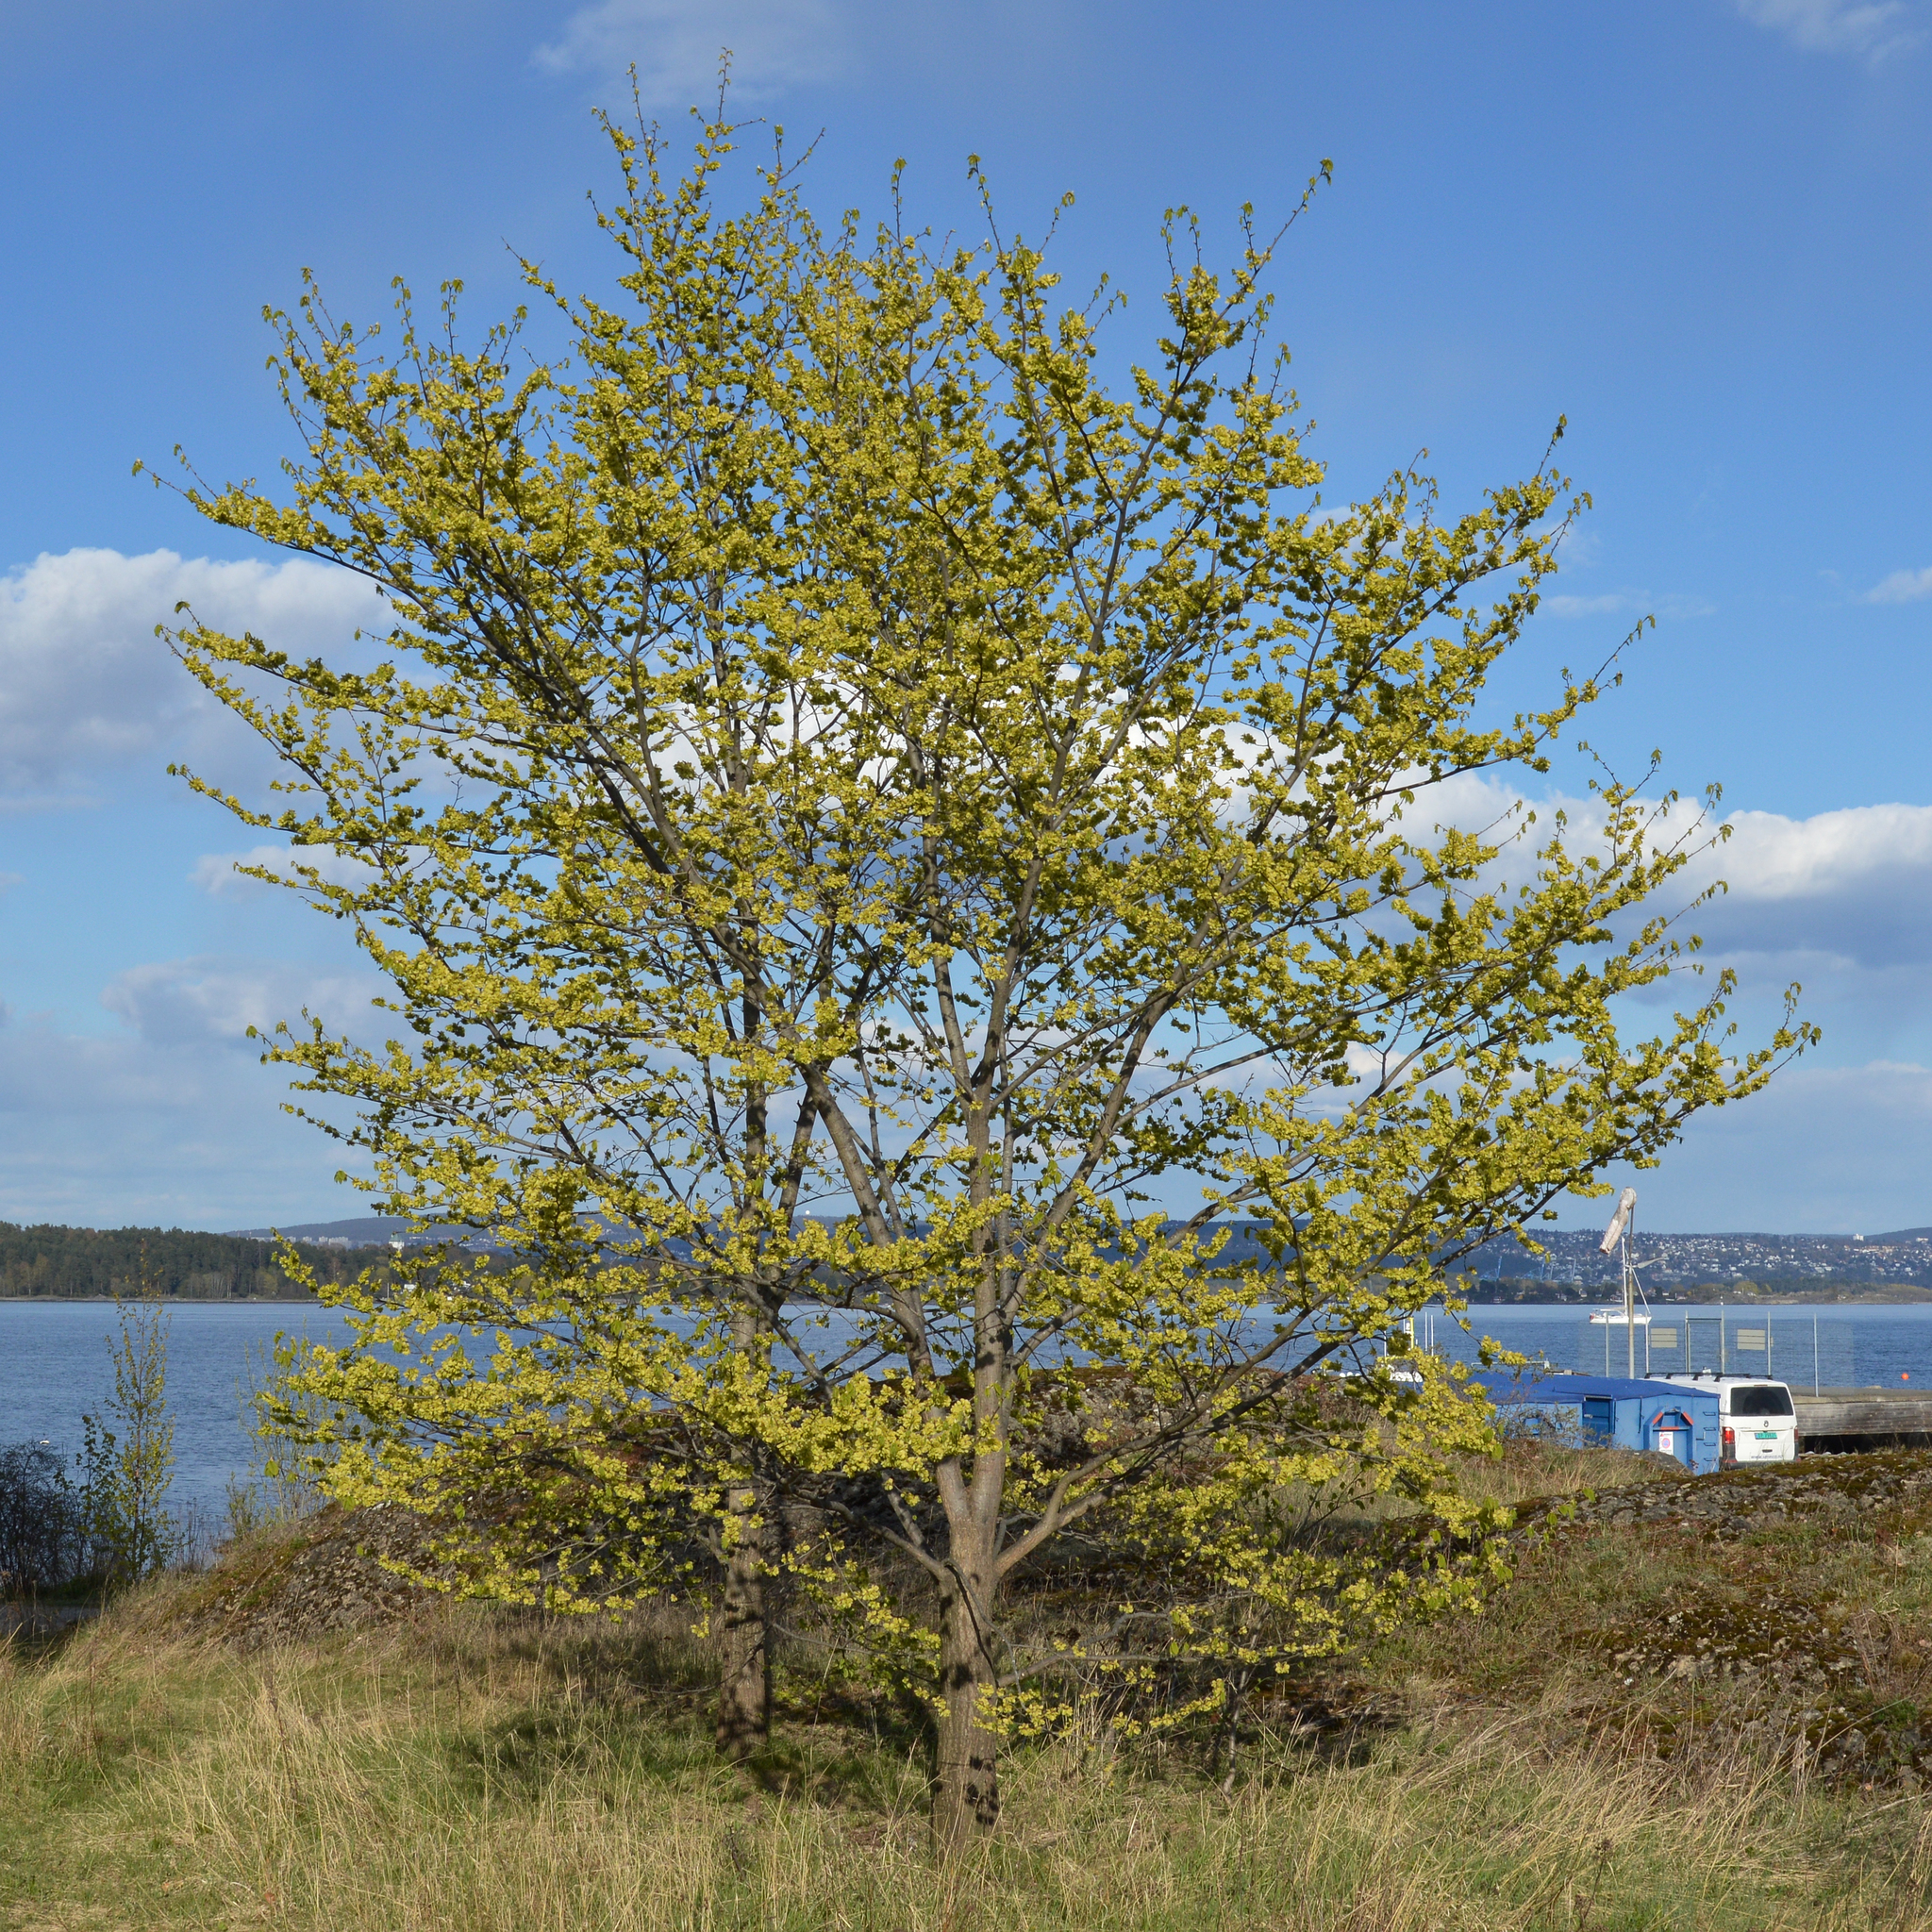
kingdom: Plantae
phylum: Tracheophyta
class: Magnoliopsida
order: Rosales
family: Ulmaceae
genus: Ulmus
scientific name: Ulmus glabra
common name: Wych elm
